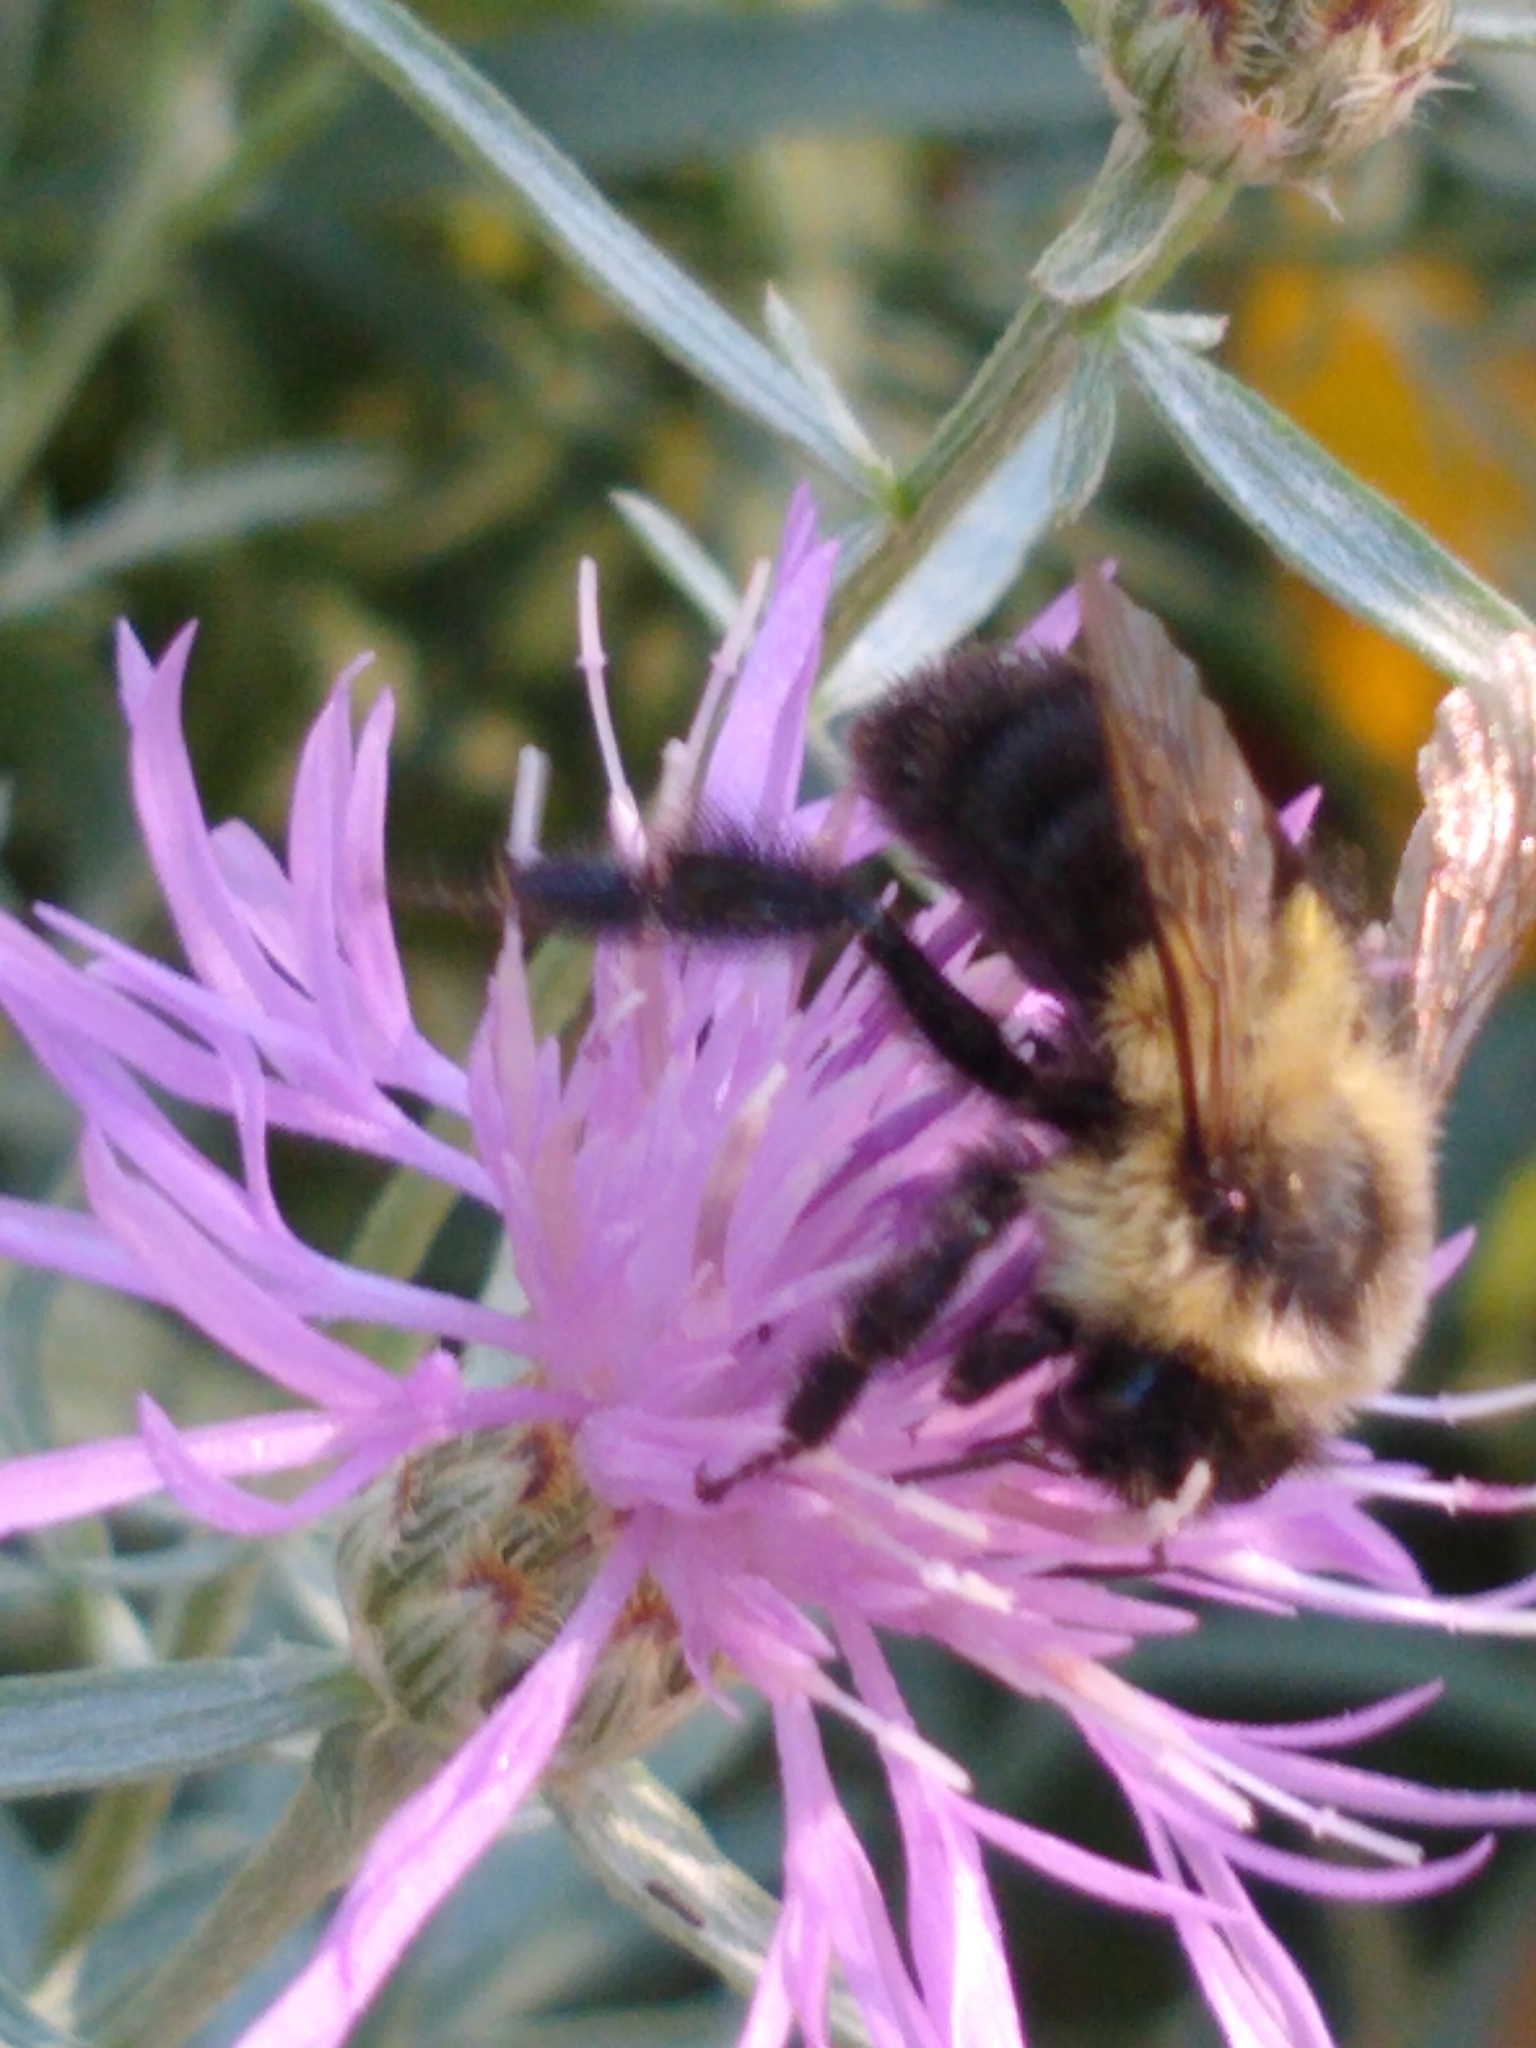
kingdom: Animalia
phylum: Arthropoda
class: Insecta
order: Hymenoptera
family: Apidae
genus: Bombus
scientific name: Bombus impatiens
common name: Common eastern bumble bee
